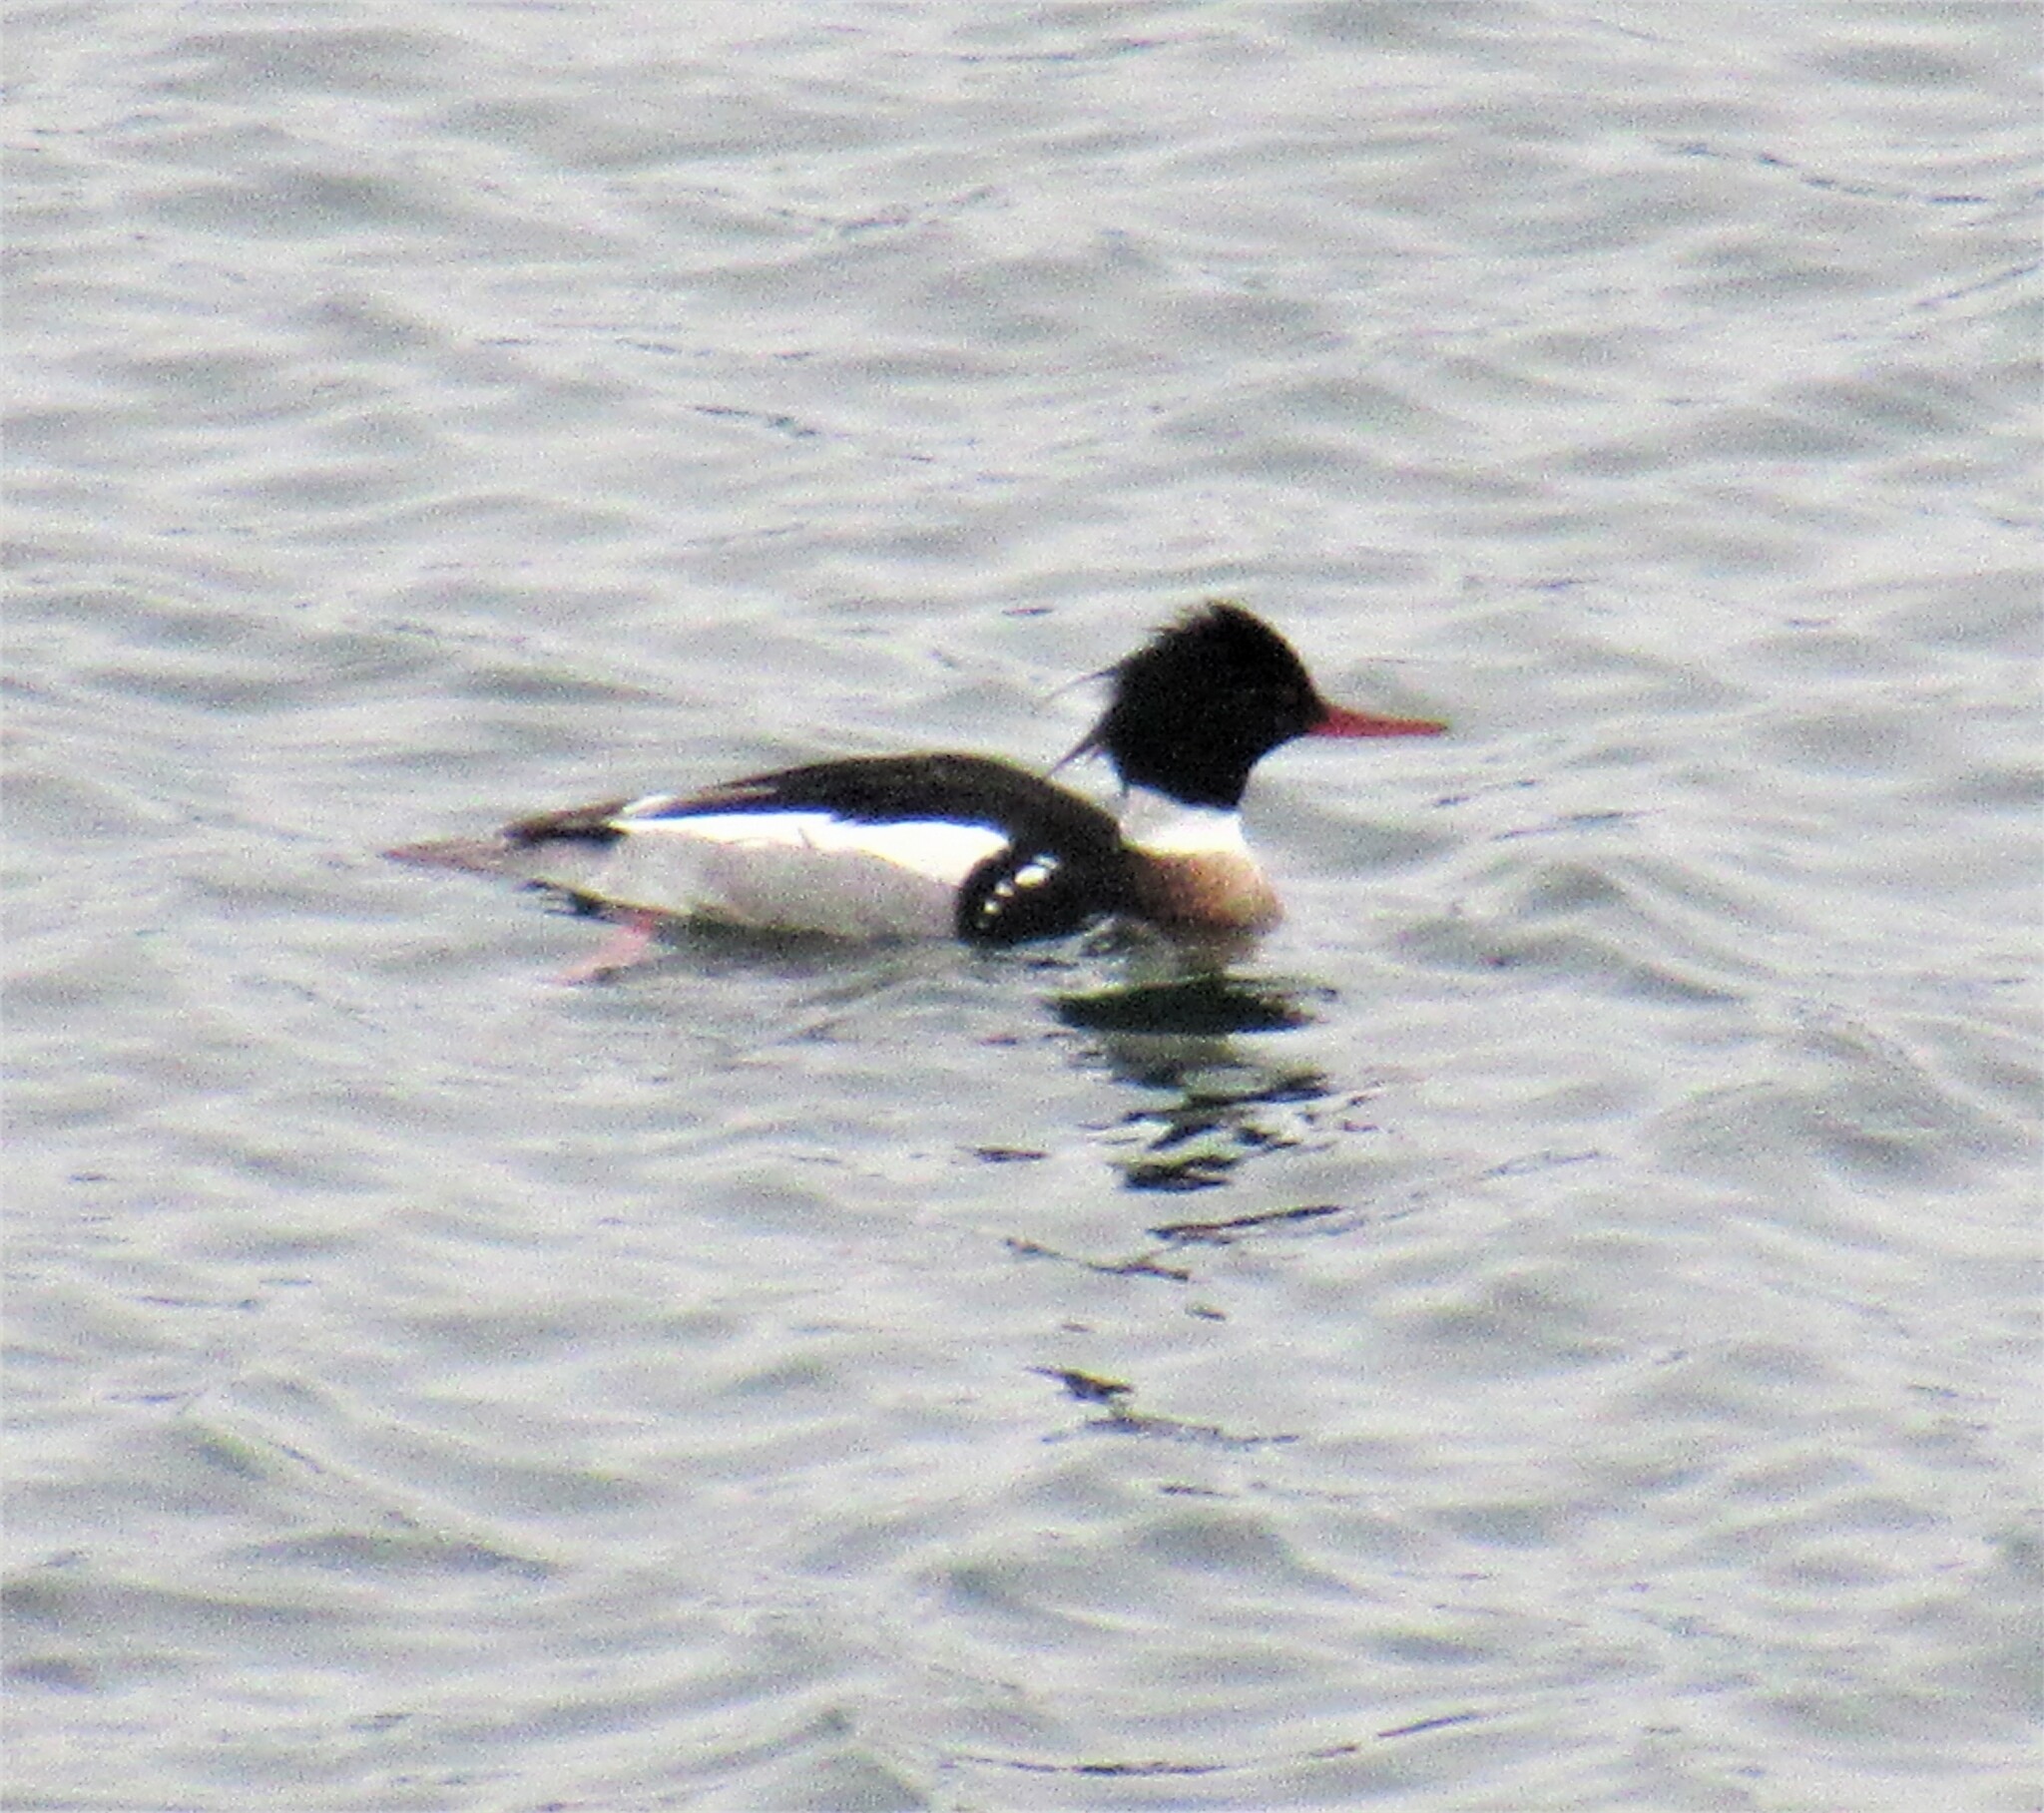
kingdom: Animalia
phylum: Chordata
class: Aves
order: Anseriformes
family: Anatidae
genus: Mergus
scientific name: Mergus serrator
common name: Red-breasted merganser
